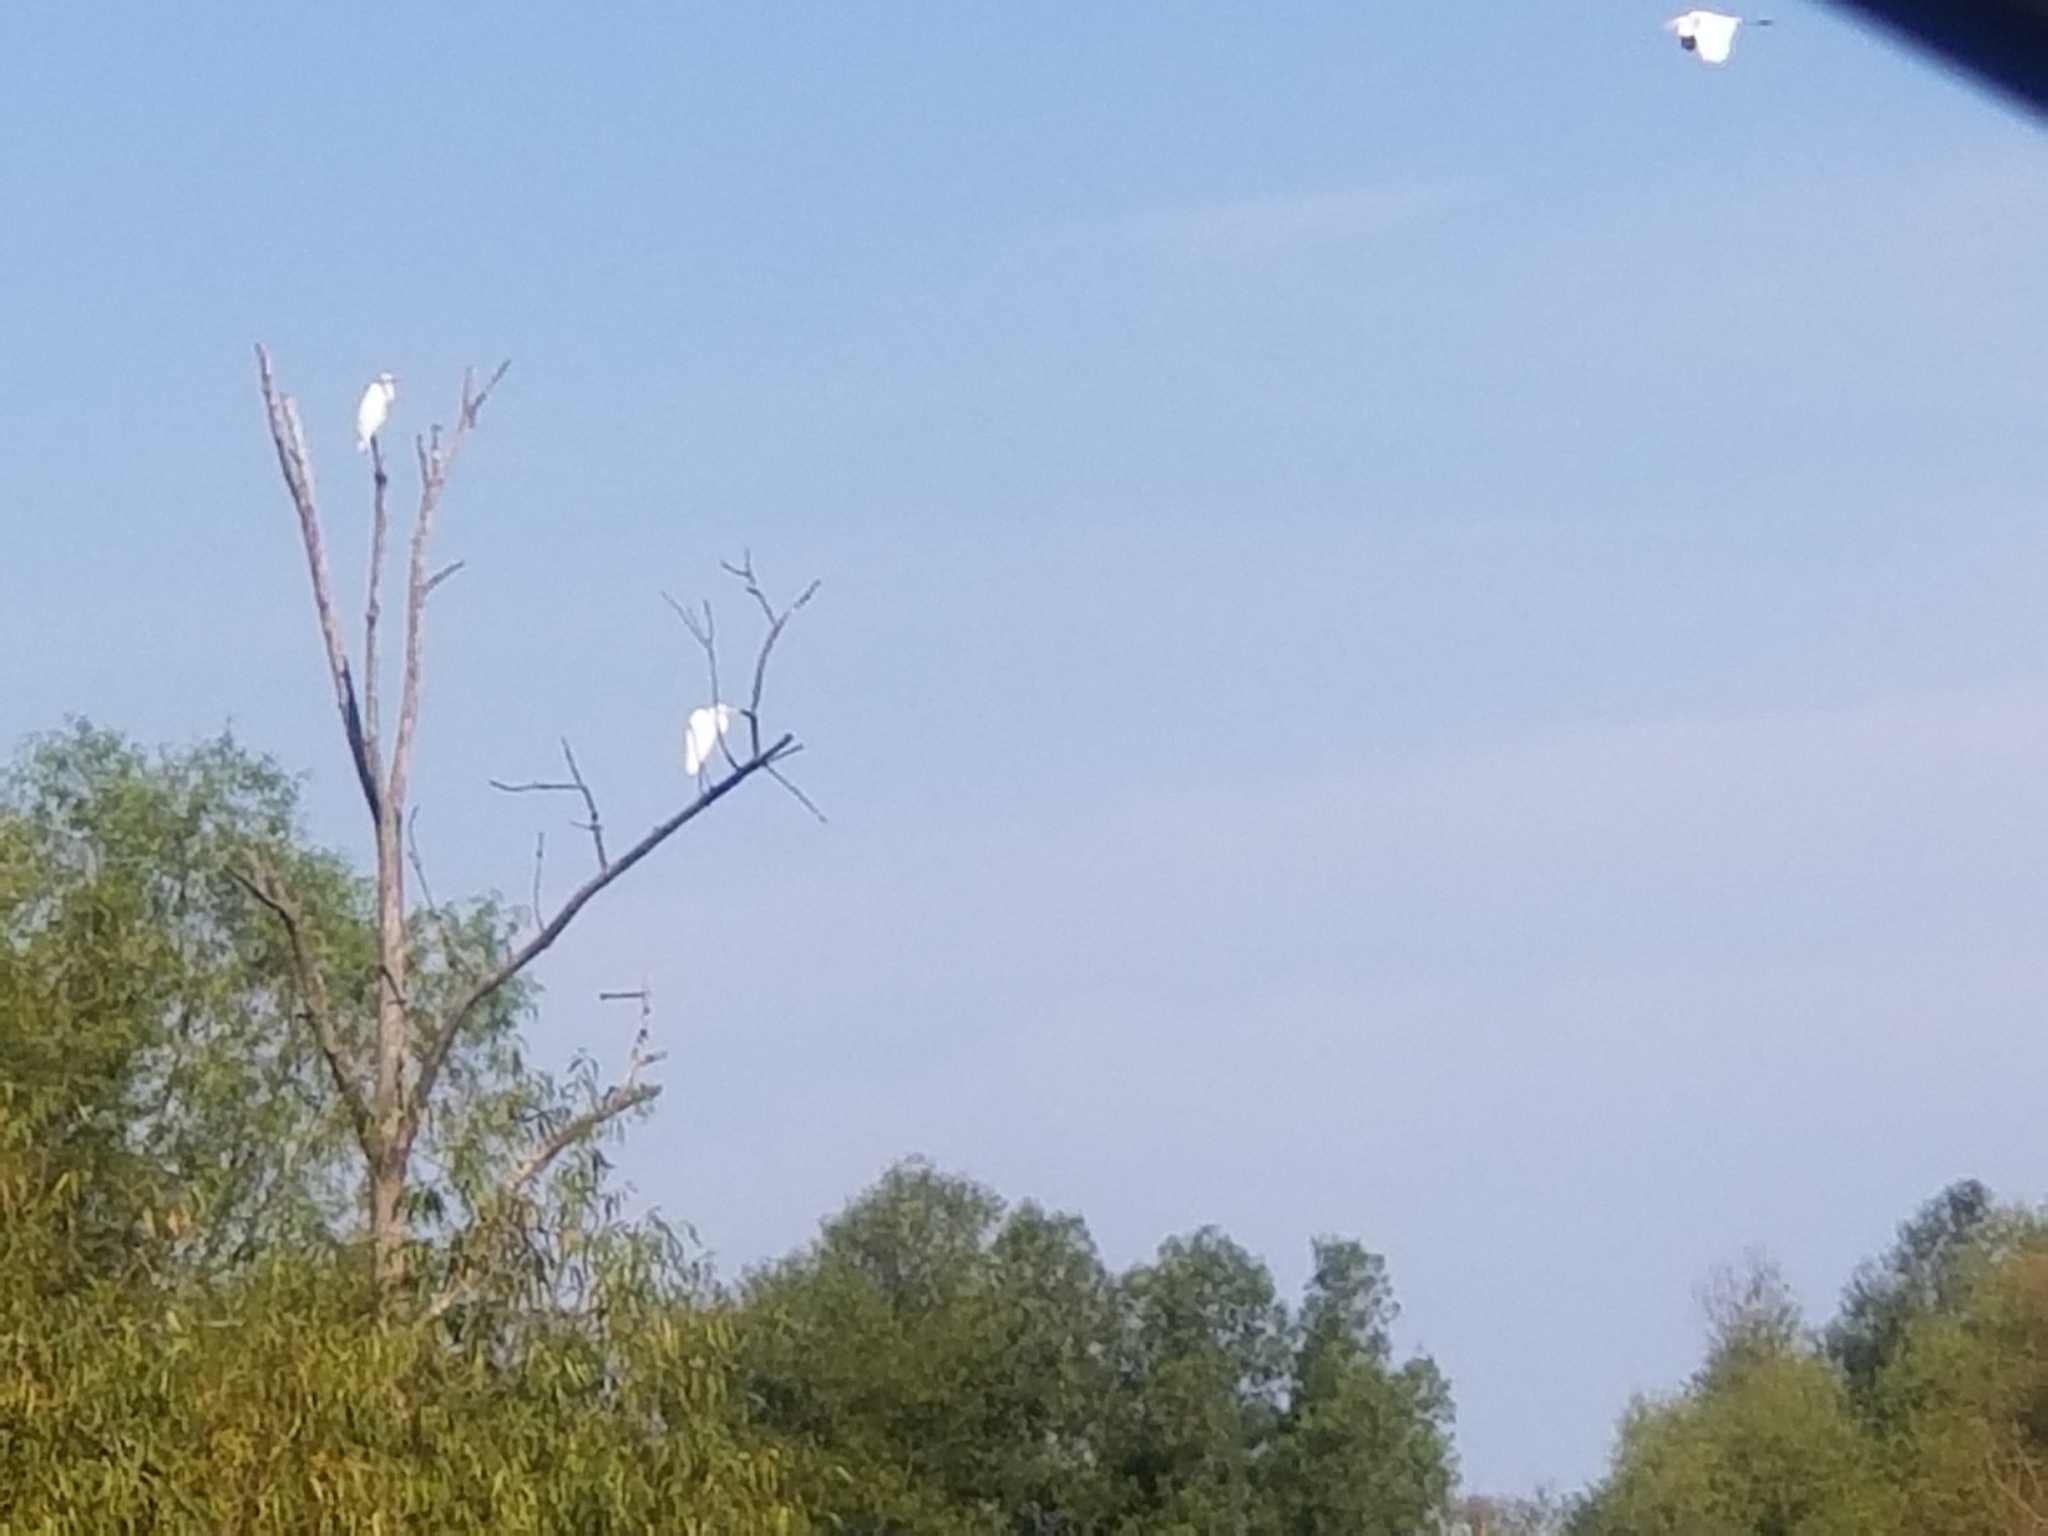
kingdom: Animalia
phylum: Chordata
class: Aves
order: Pelecaniformes
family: Ardeidae
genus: Ardea
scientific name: Ardea alba
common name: Great egret
